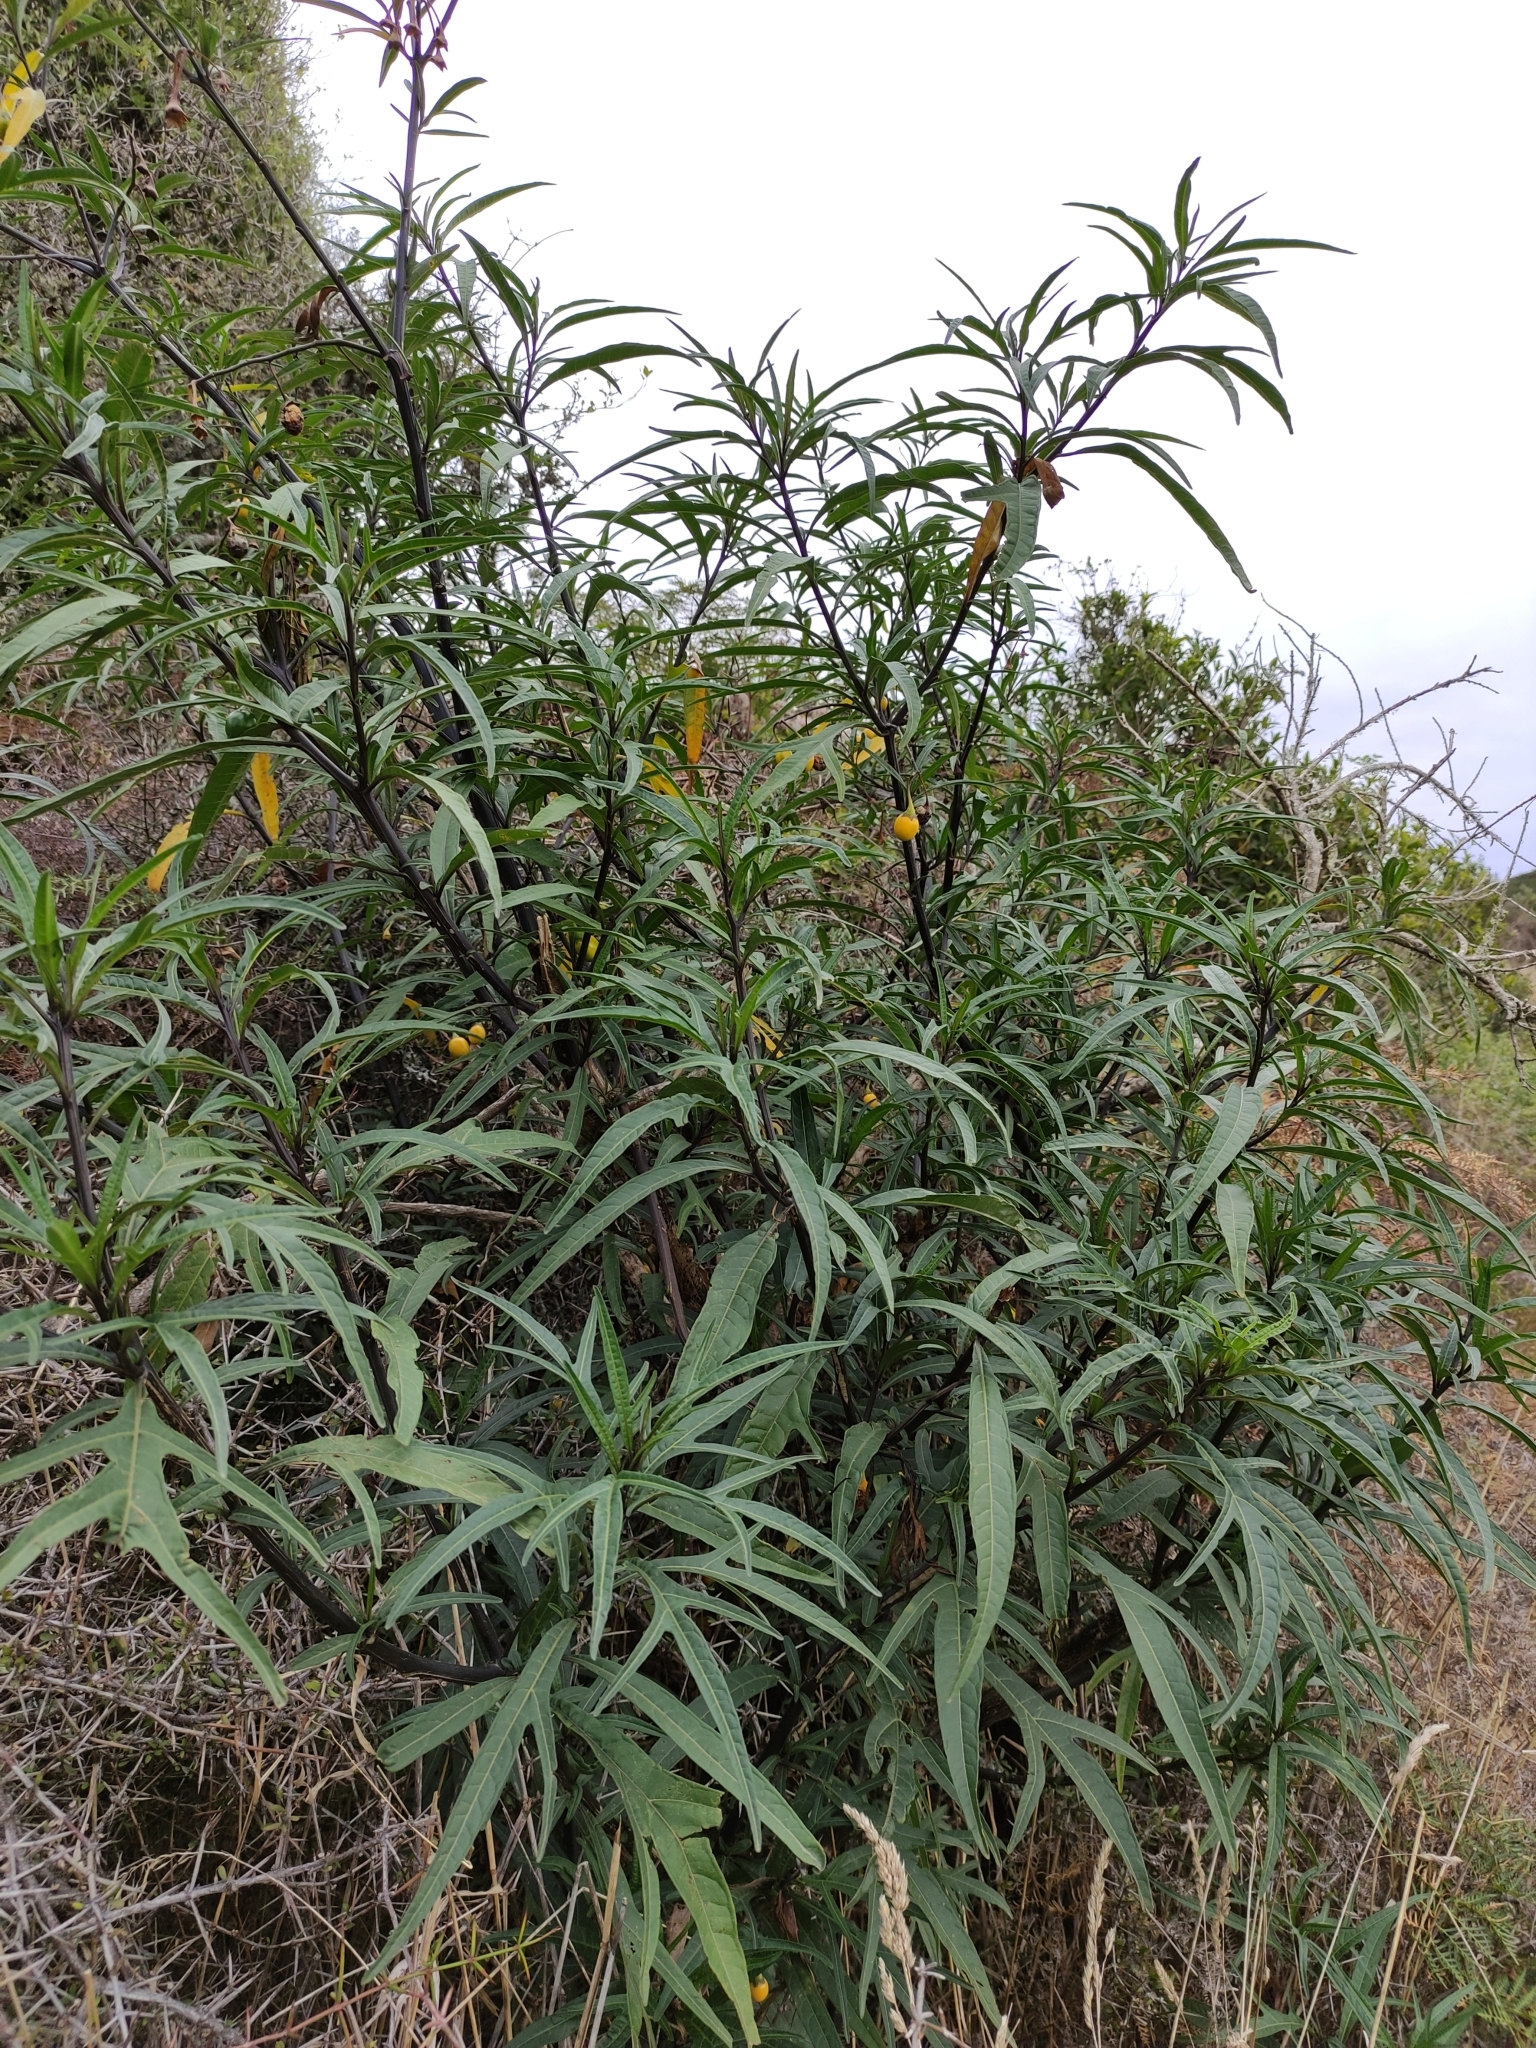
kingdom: Plantae
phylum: Tracheophyta
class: Magnoliopsida
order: Solanales
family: Solanaceae
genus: Solanum
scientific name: Solanum
